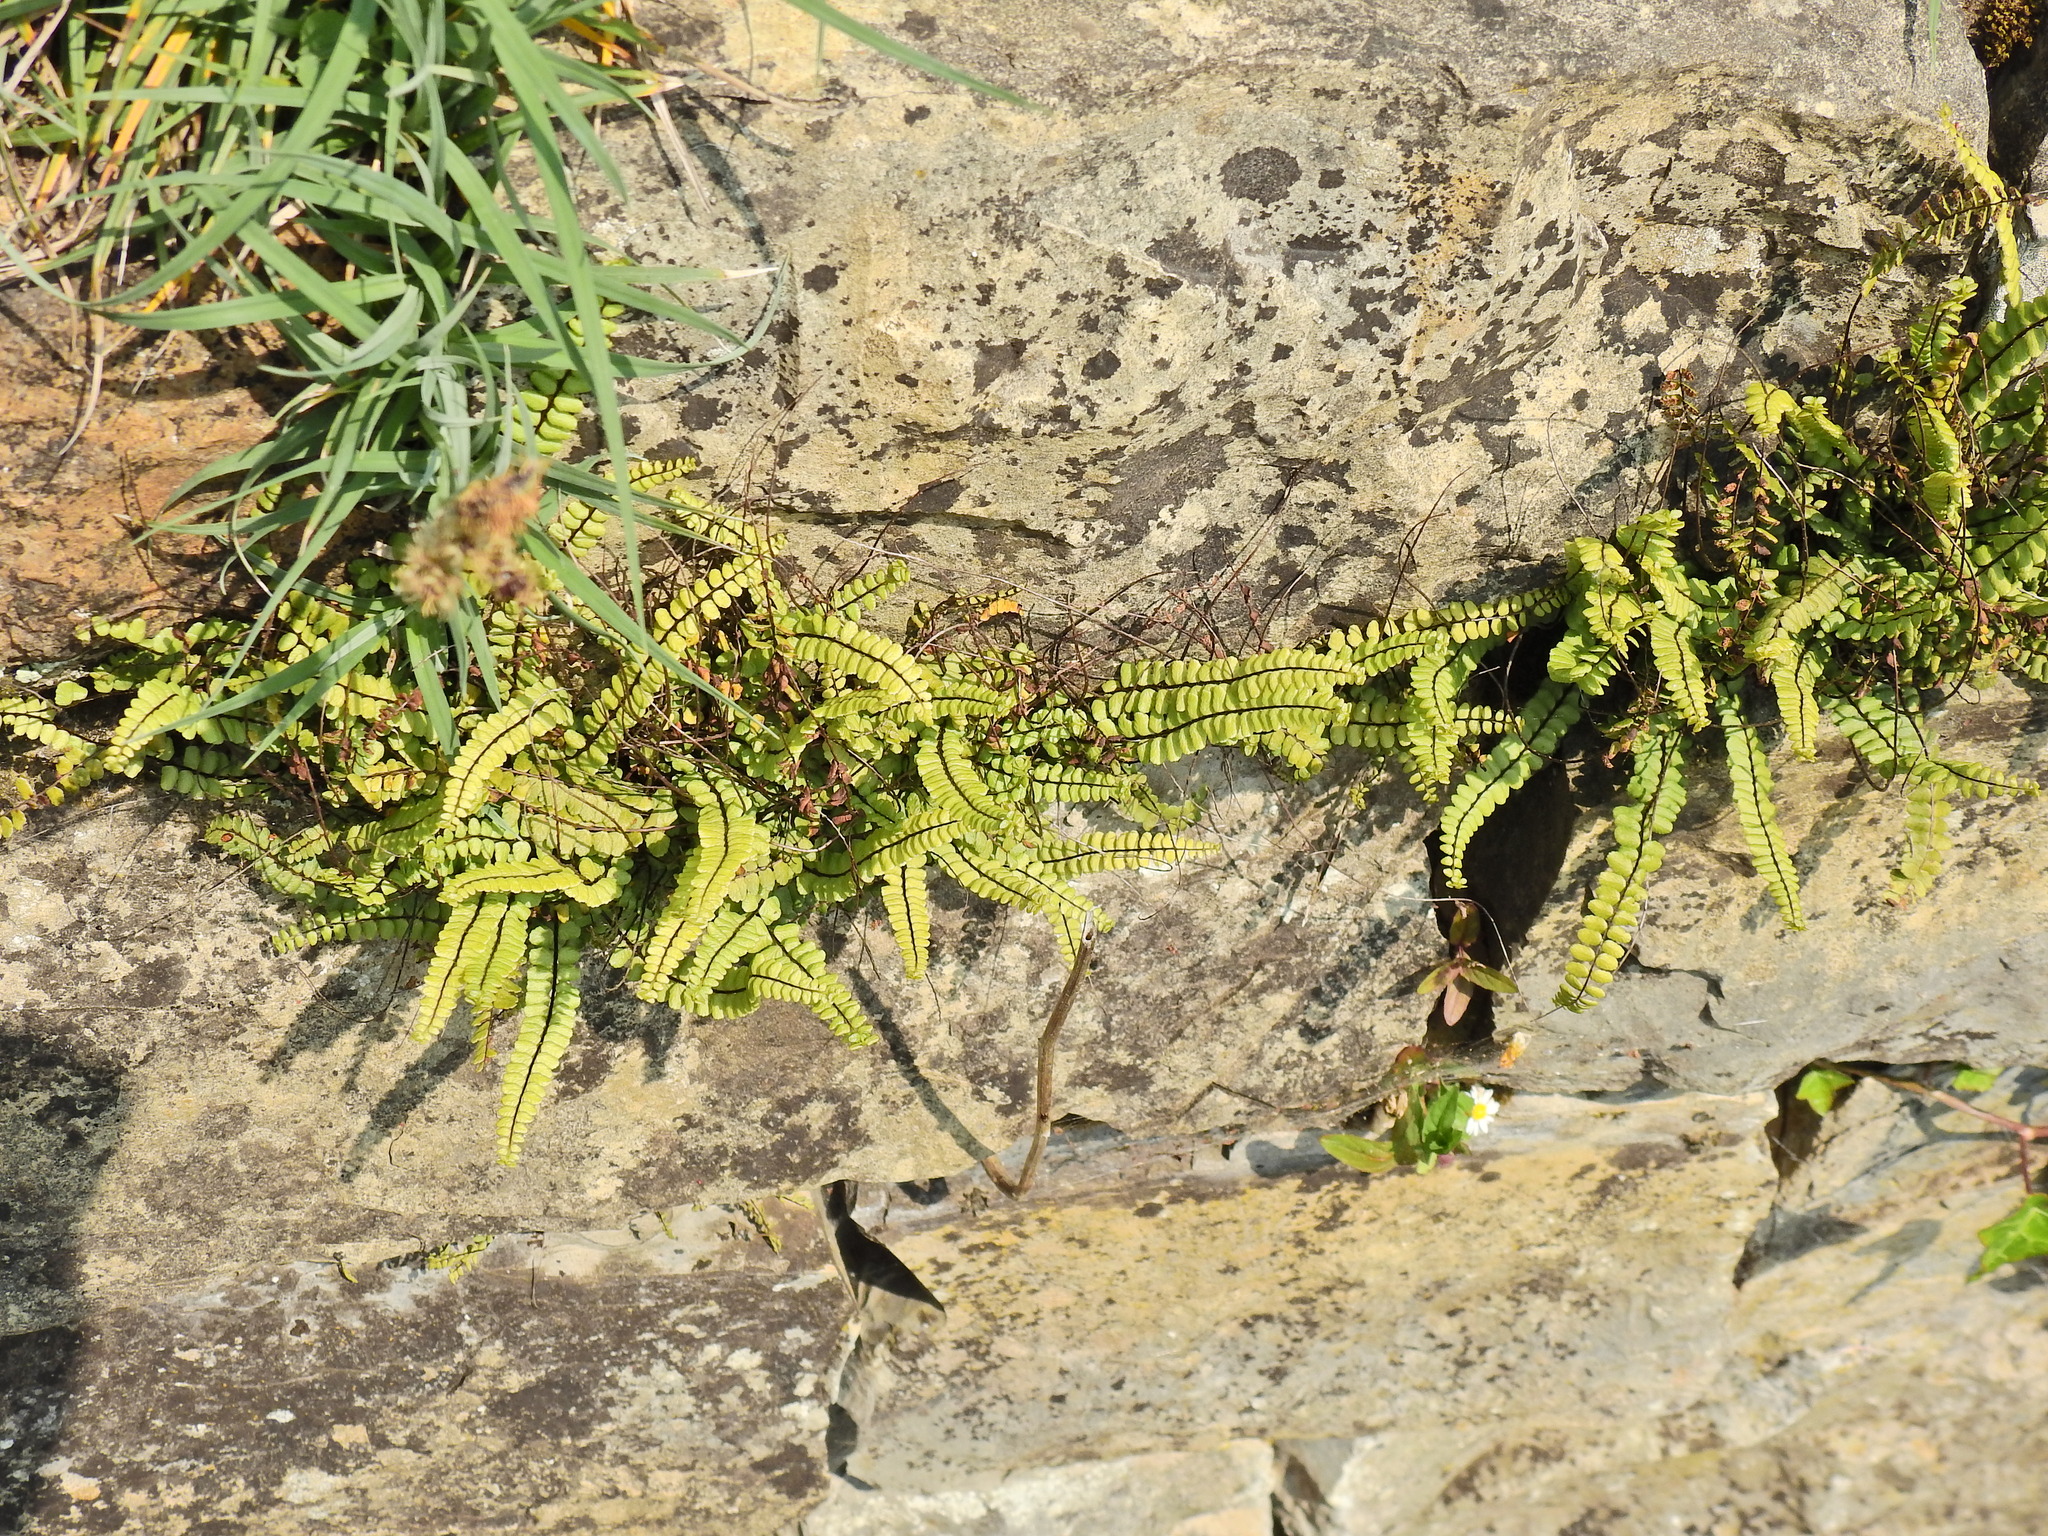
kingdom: Plantae
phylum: Tracheophyta
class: Polypodiopsida
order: Polypodiales
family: Aspleniaceae
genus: Asplenium
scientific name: Asplenium trichomanes
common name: Maidenhair spleenwort
